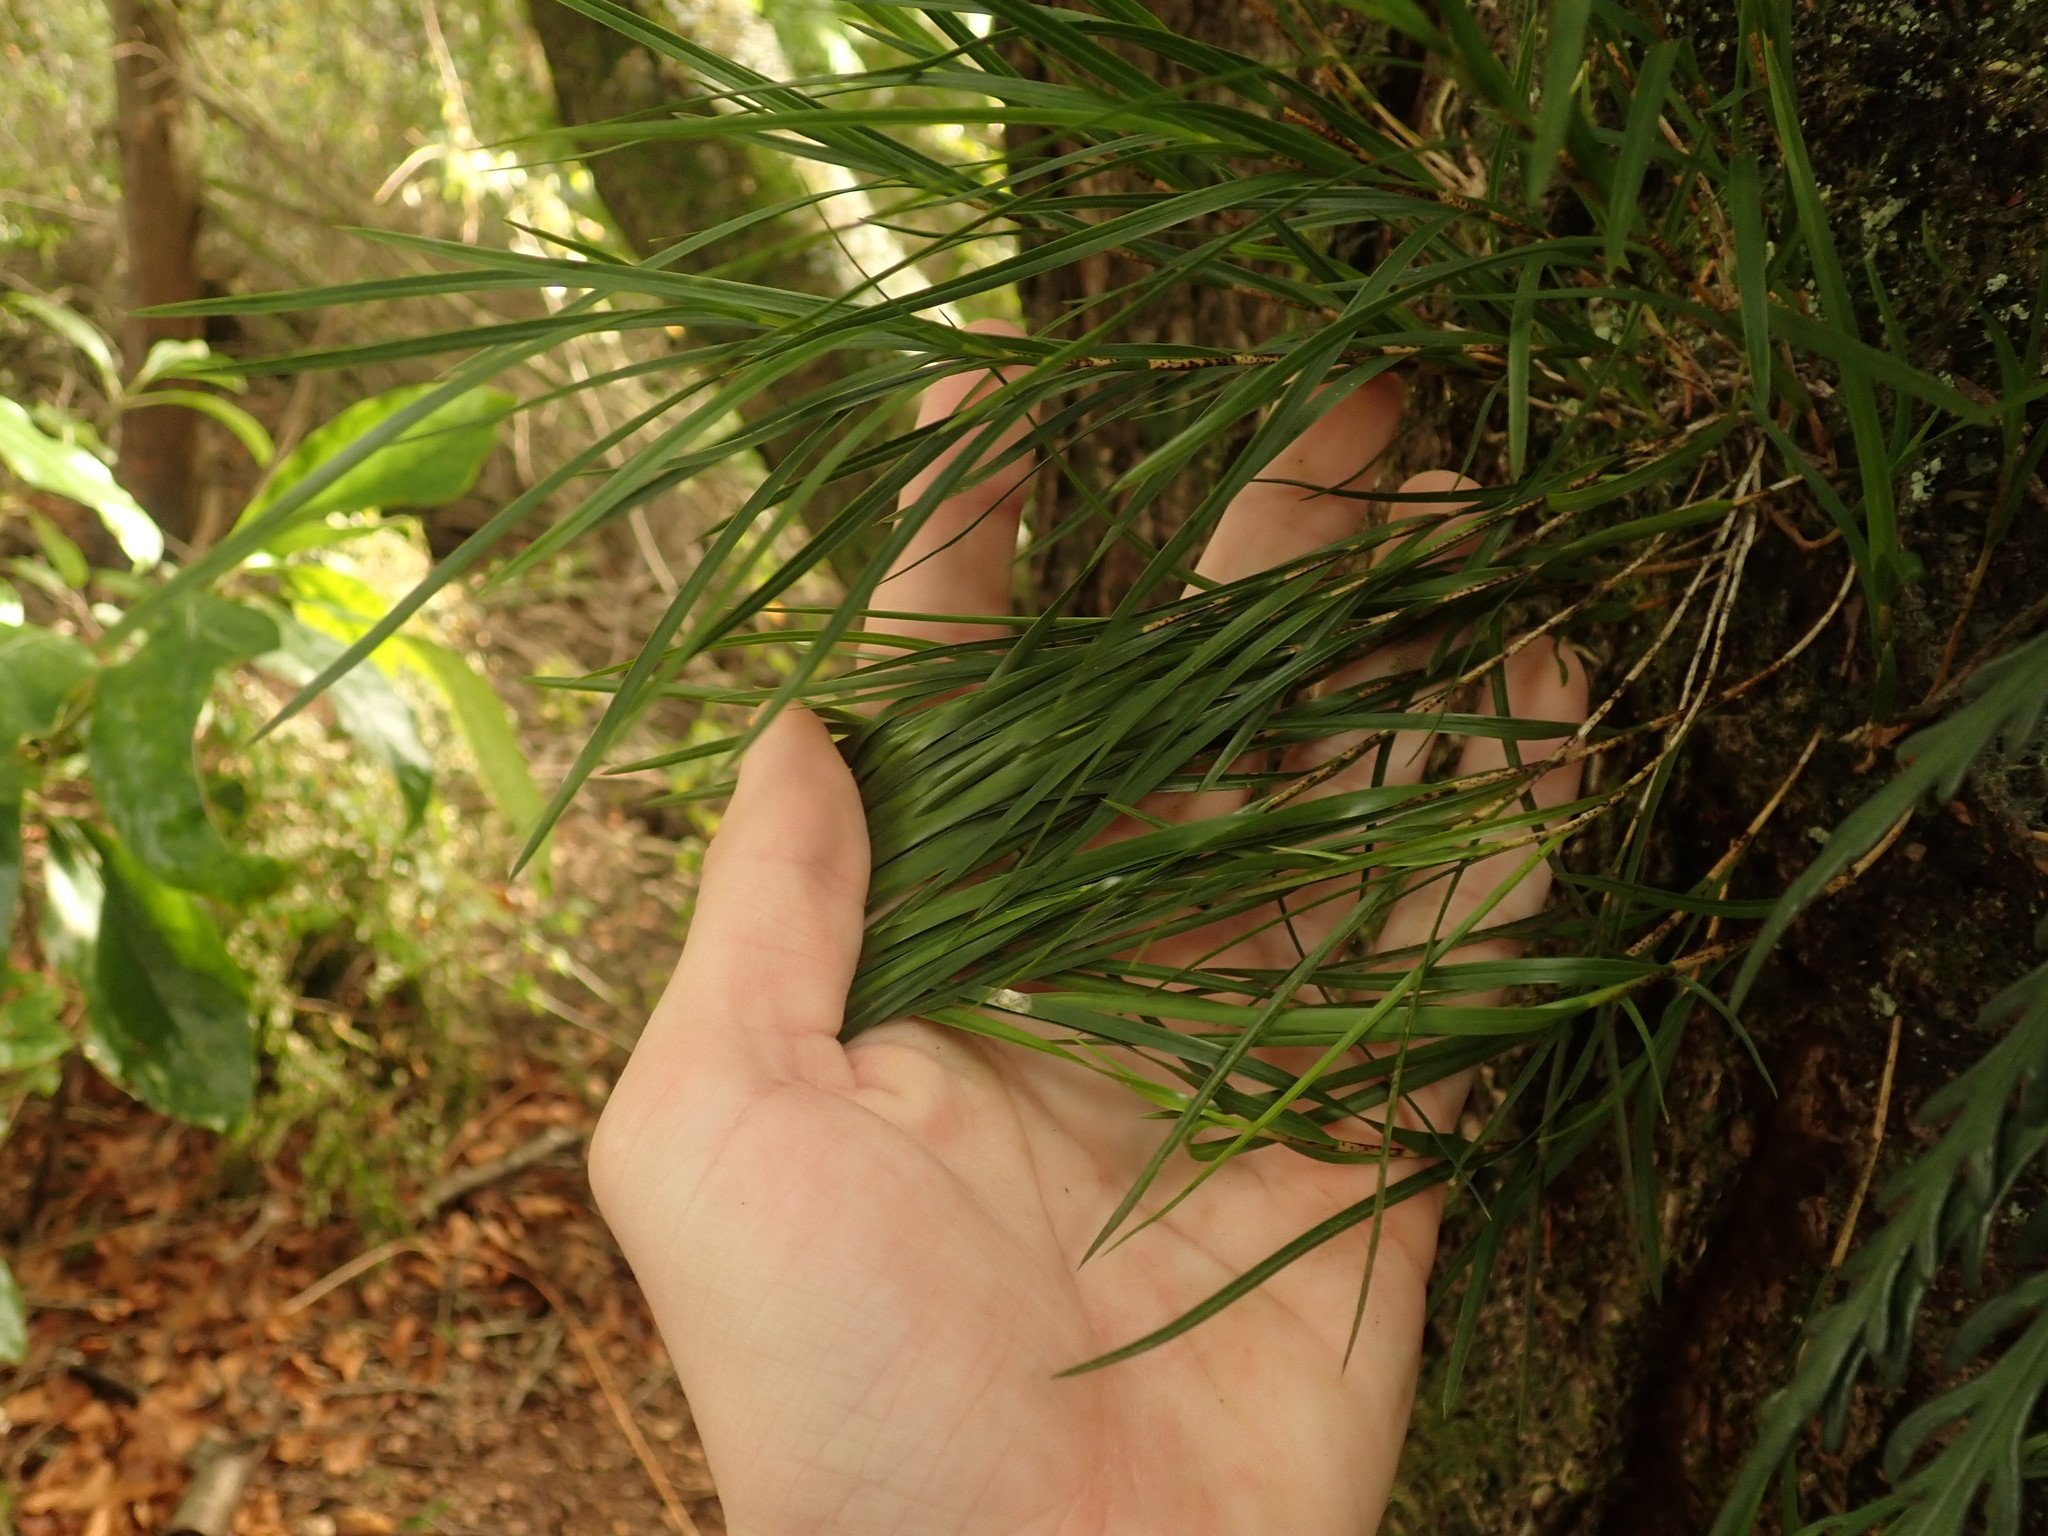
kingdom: Plantae
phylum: Tracheophyta
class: Liliopsida
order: Asparagales
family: Orchidaceae
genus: Earina
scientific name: Earina mucronata
